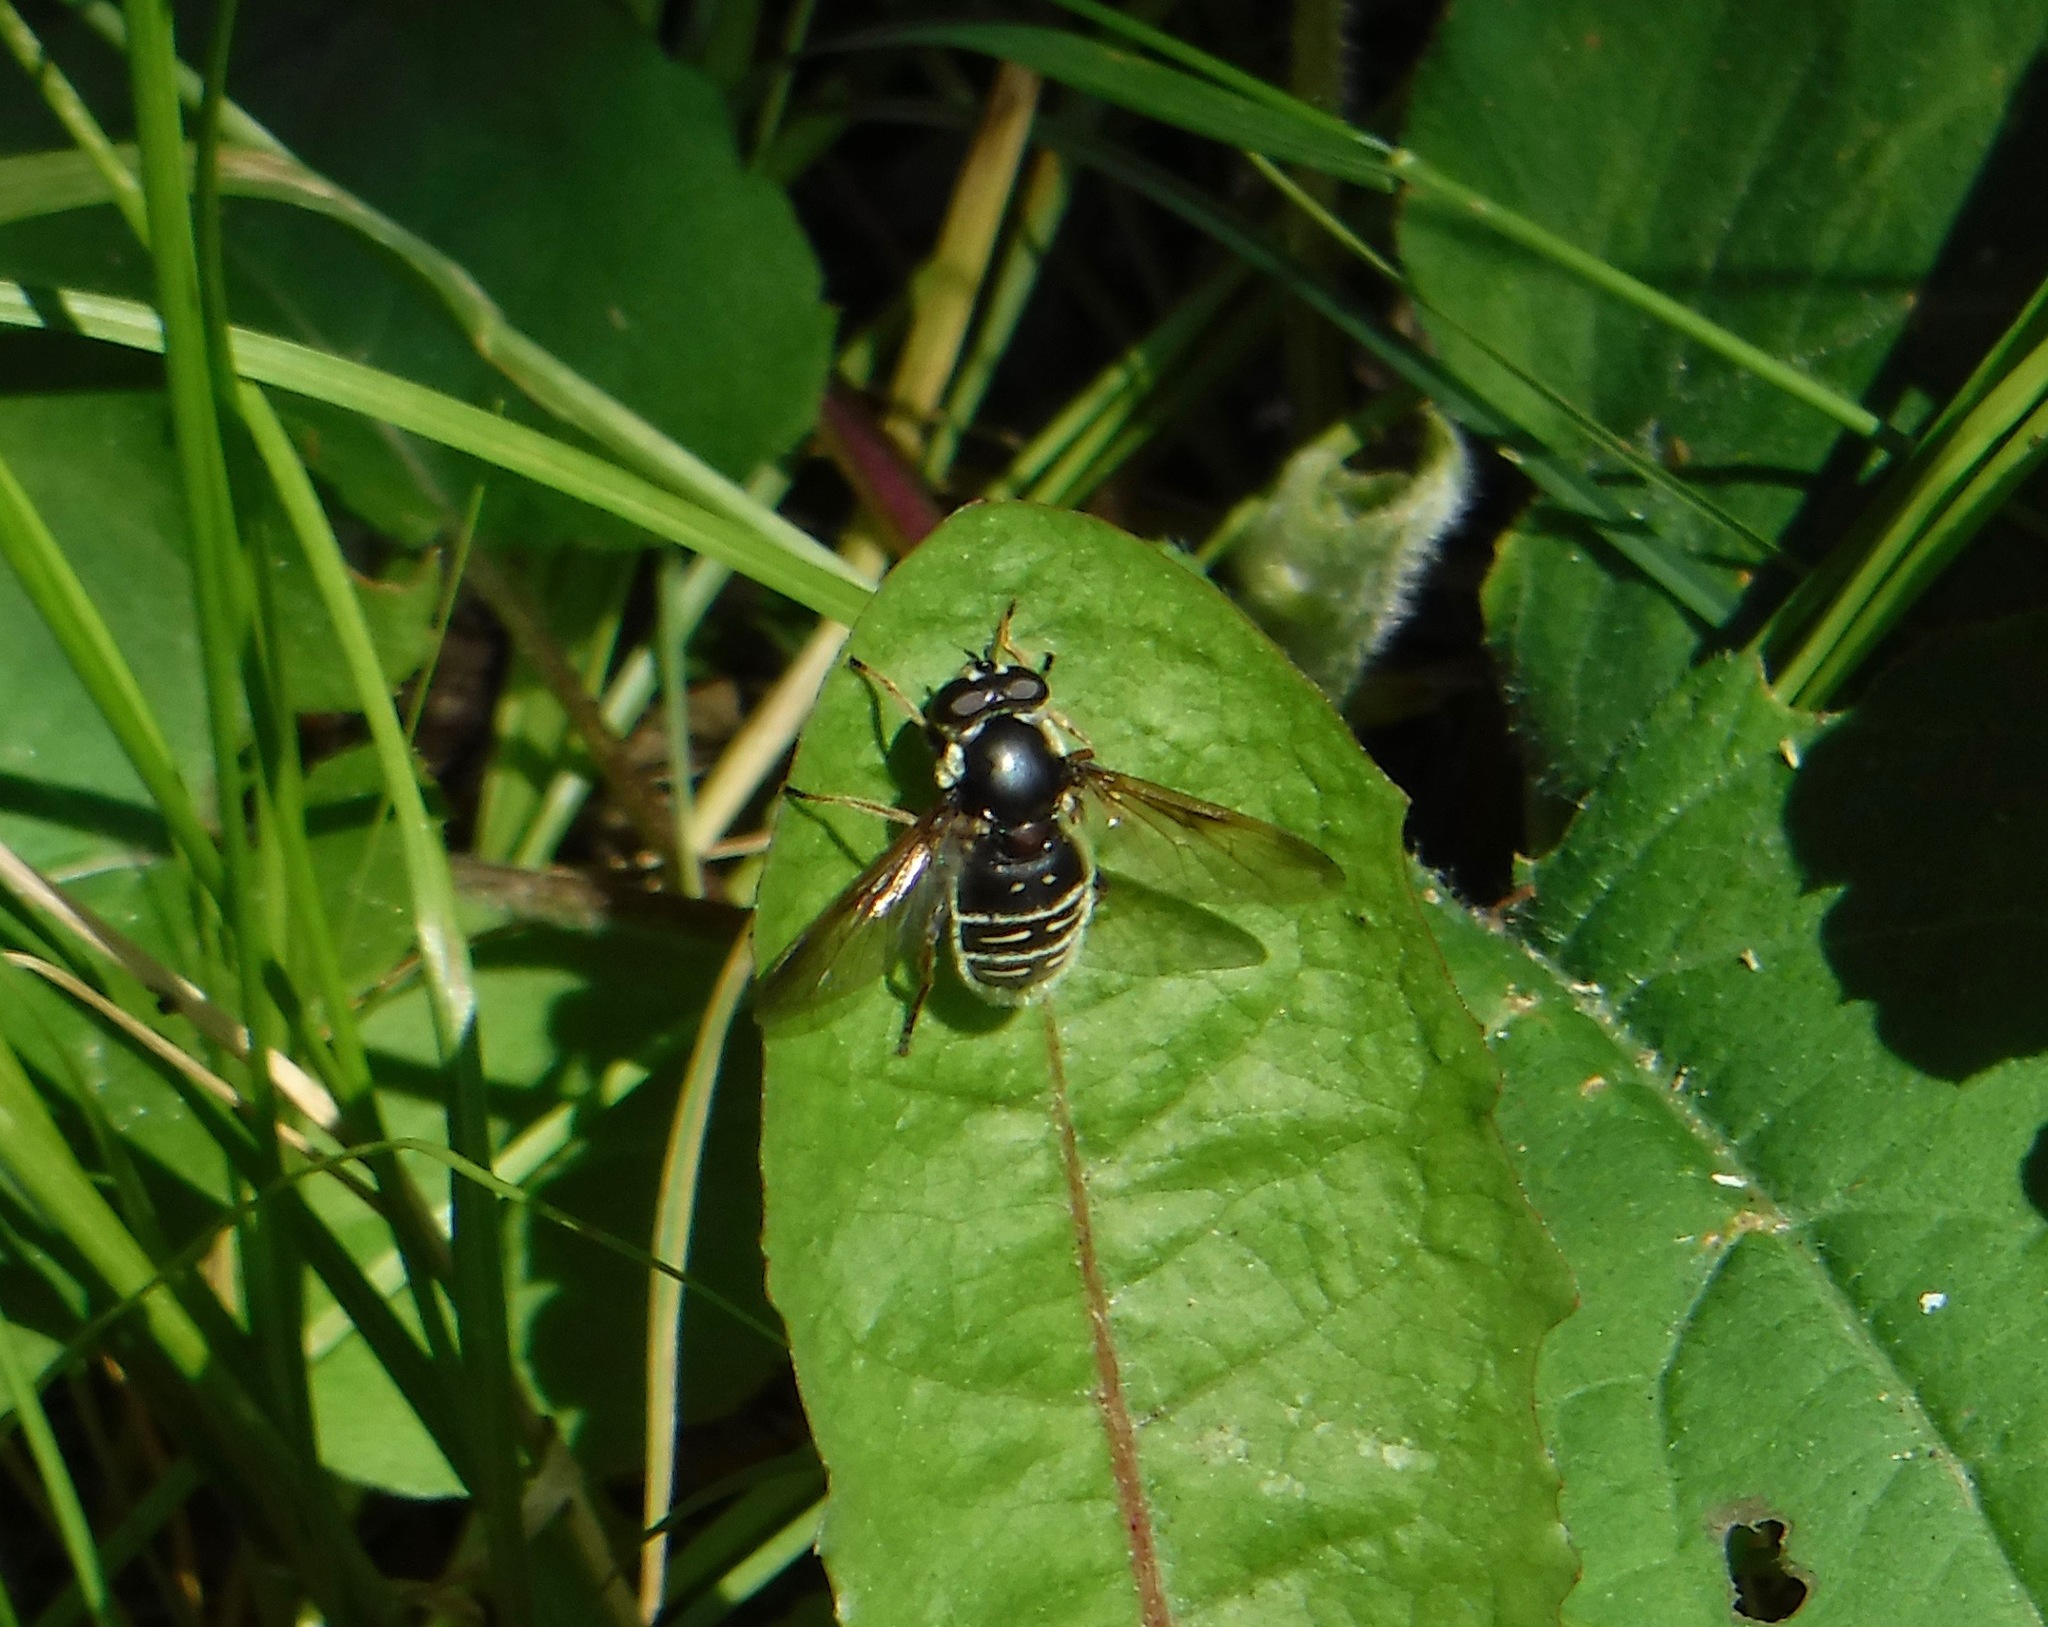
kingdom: Animalia
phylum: Arthropoda
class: Insecta
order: Diptera
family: Syrphidae
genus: Sericomyia
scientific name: Sericomyia militaris
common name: Narrow-banded pond fly
